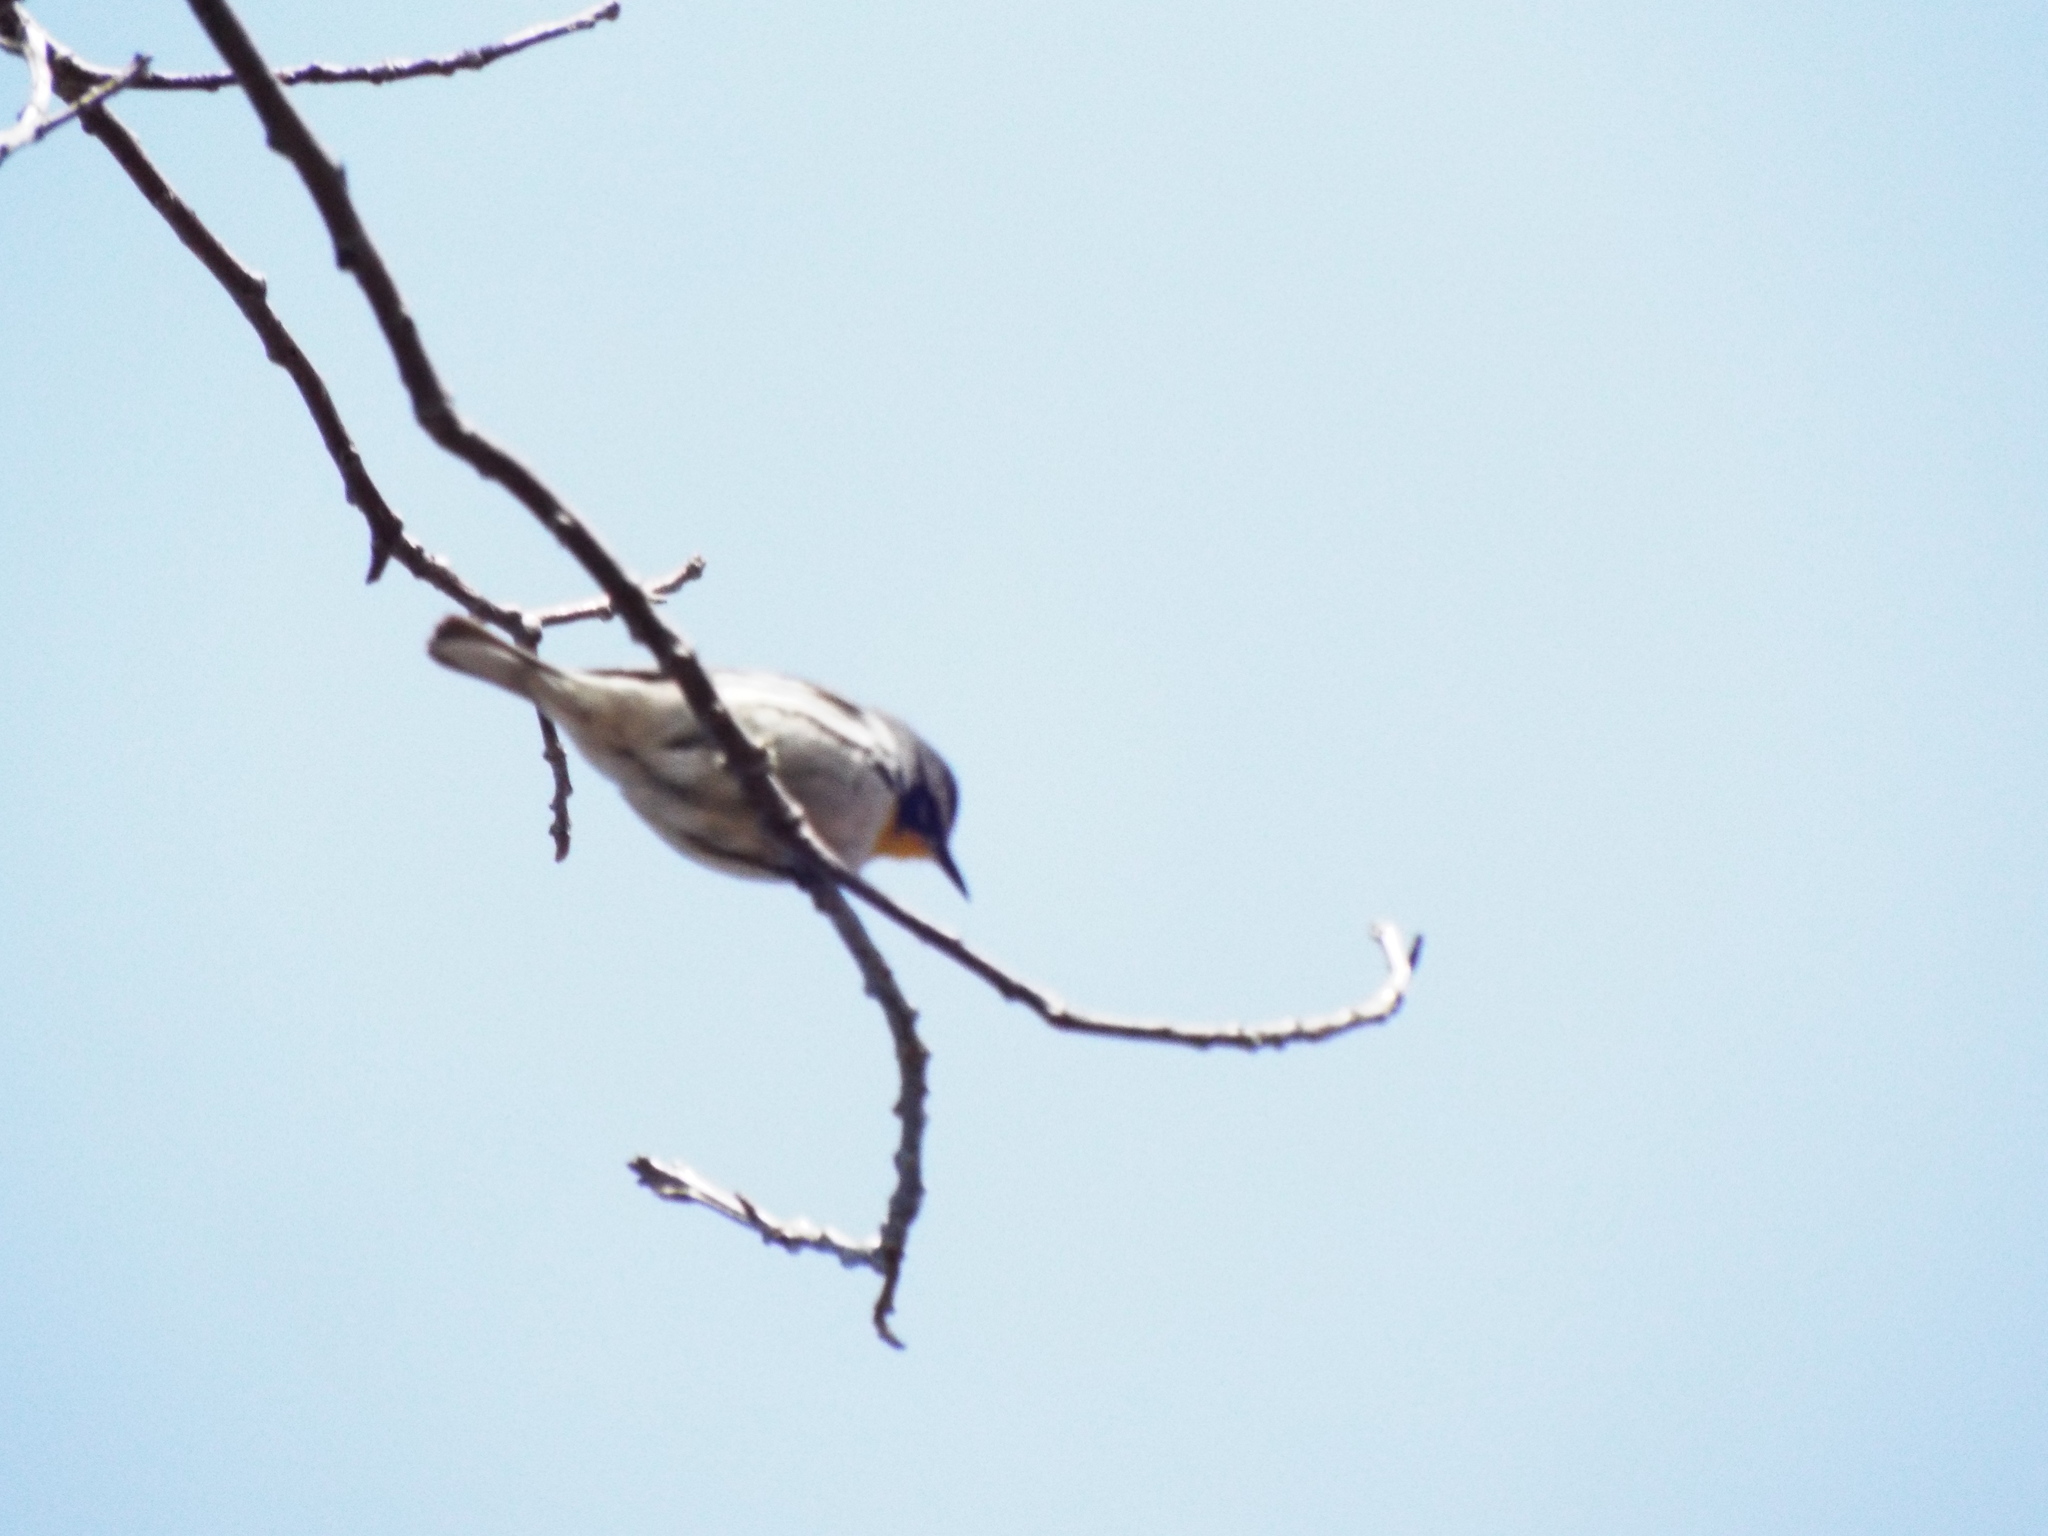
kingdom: Animalia
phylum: Chordata
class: Aves
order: Passeriformes
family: Parulidae
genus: Setophaga
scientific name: Setophaga dominica
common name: Yellow-throated warbler
